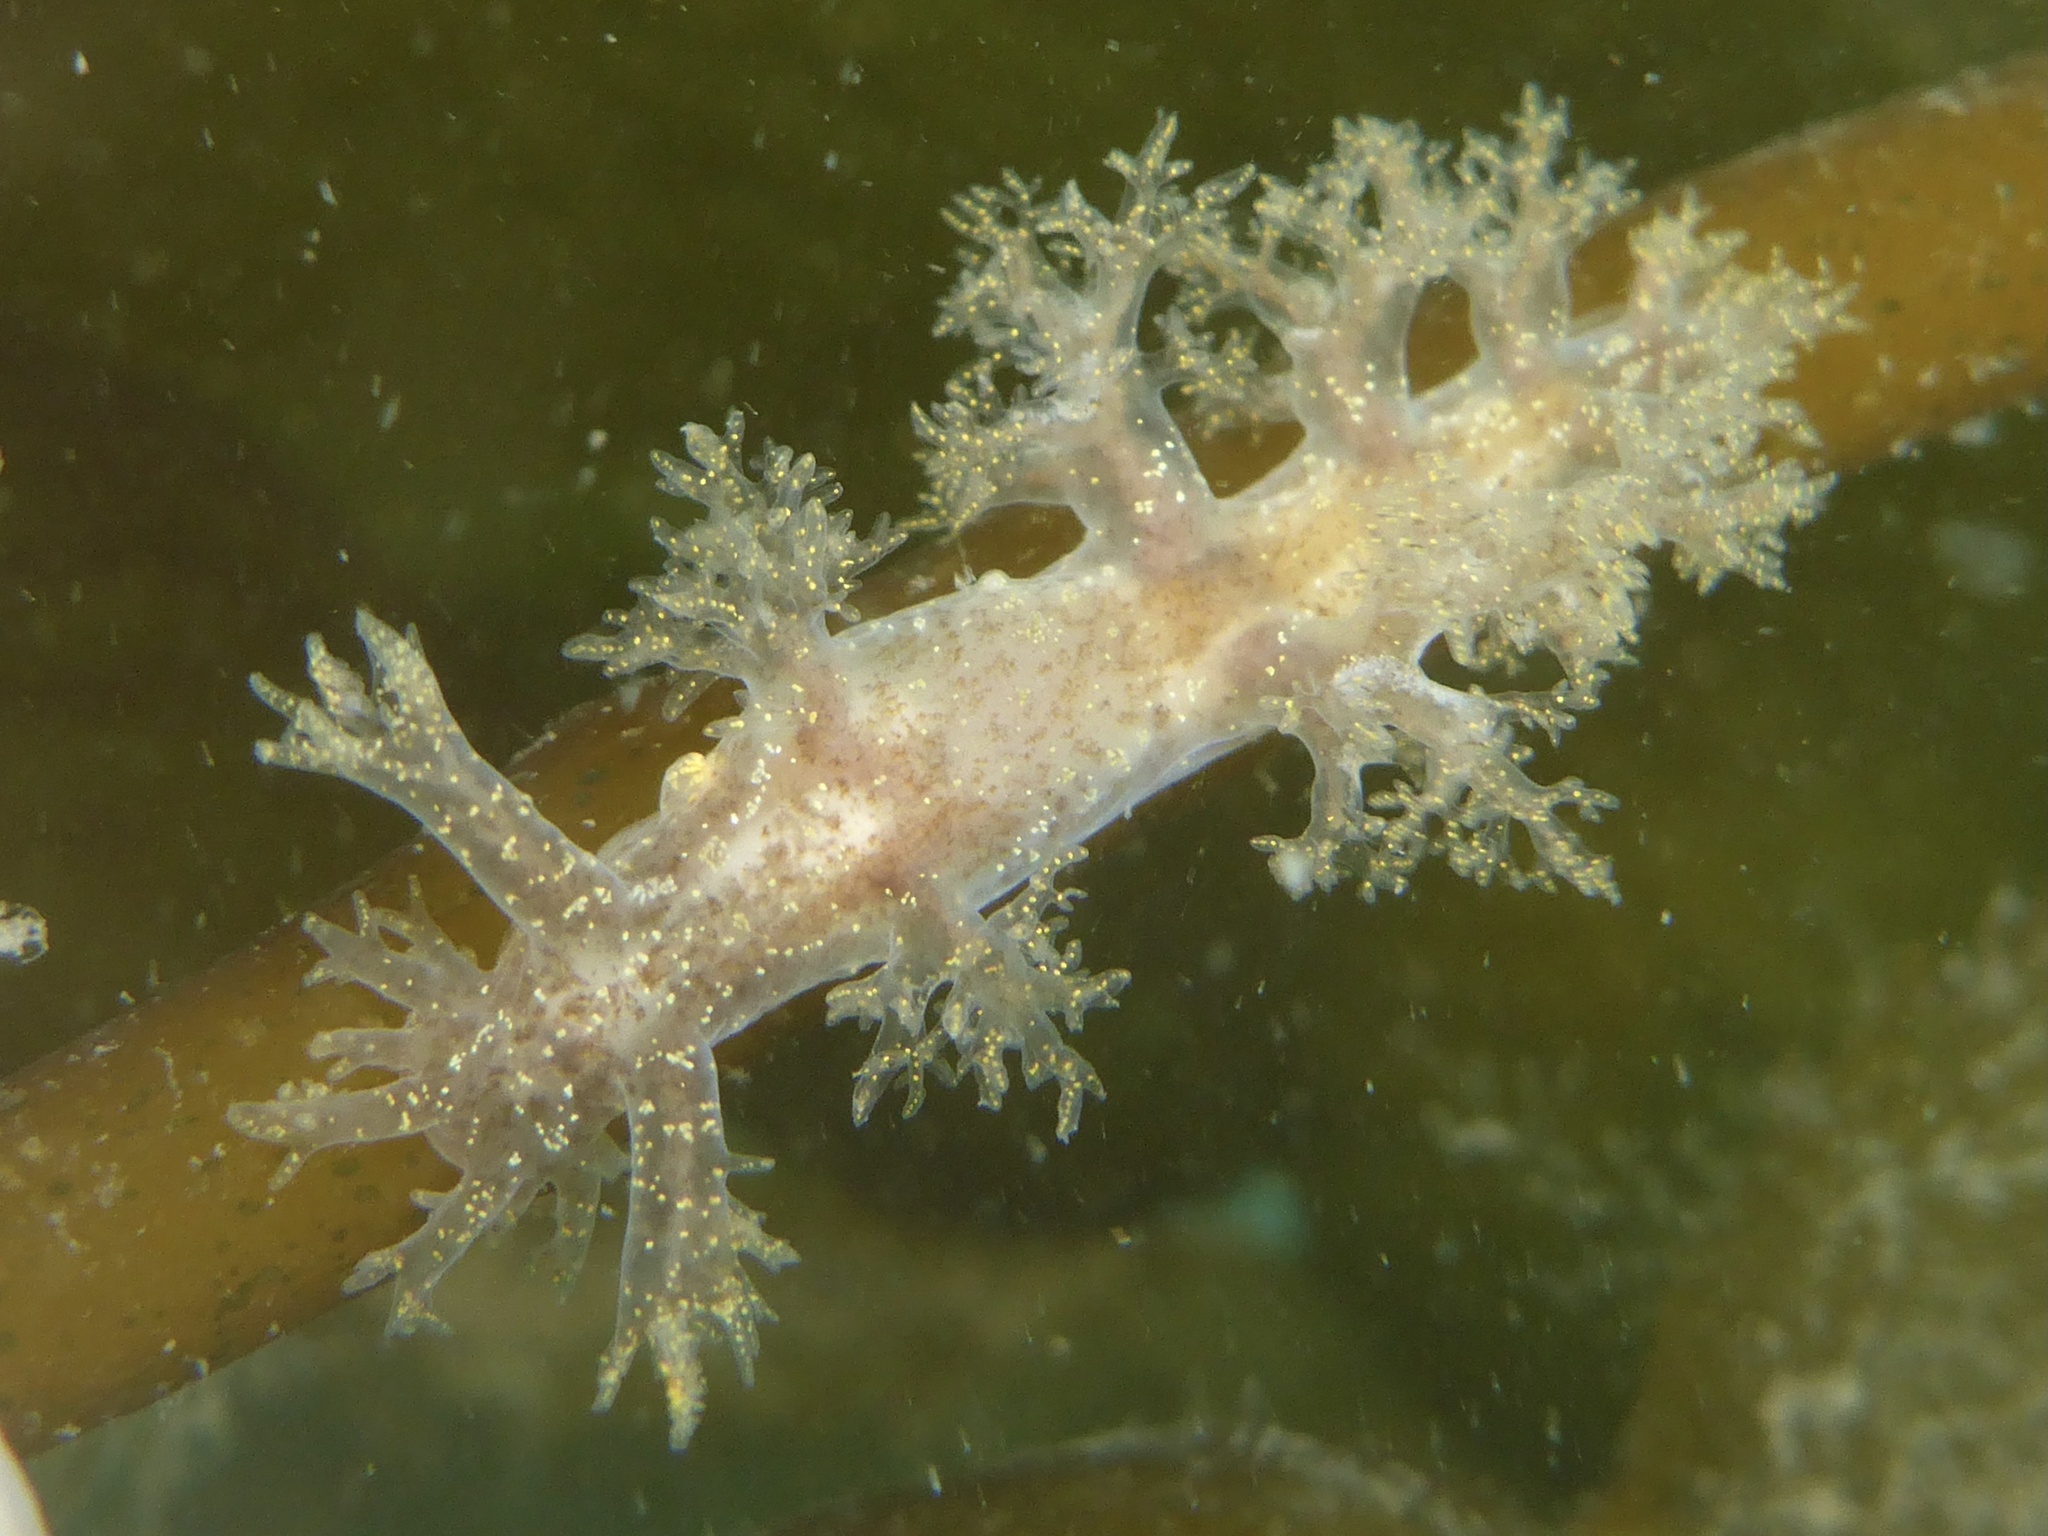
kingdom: Animalia
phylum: Mollusca
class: Gastropoda
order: Nudibranchia
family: Dendronotidae
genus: Dendronotus
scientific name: Dendronotus venustus
